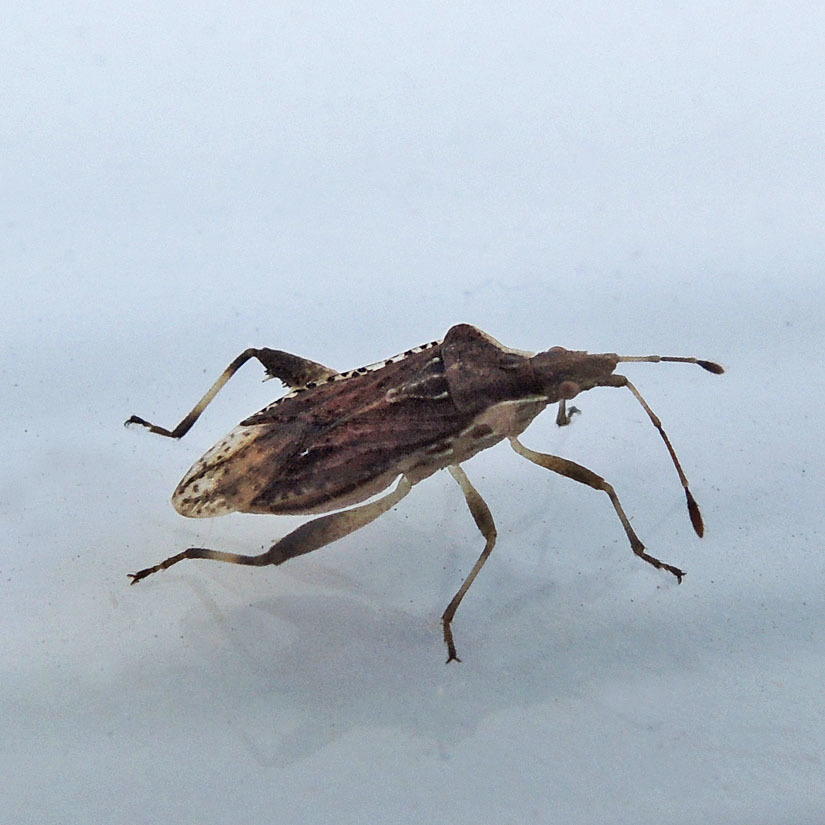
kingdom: Animalia
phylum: Arthropoda
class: Insecta
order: Hemiptera
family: Rhopalidae
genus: Harmostes
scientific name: Harmostes fraterculus
